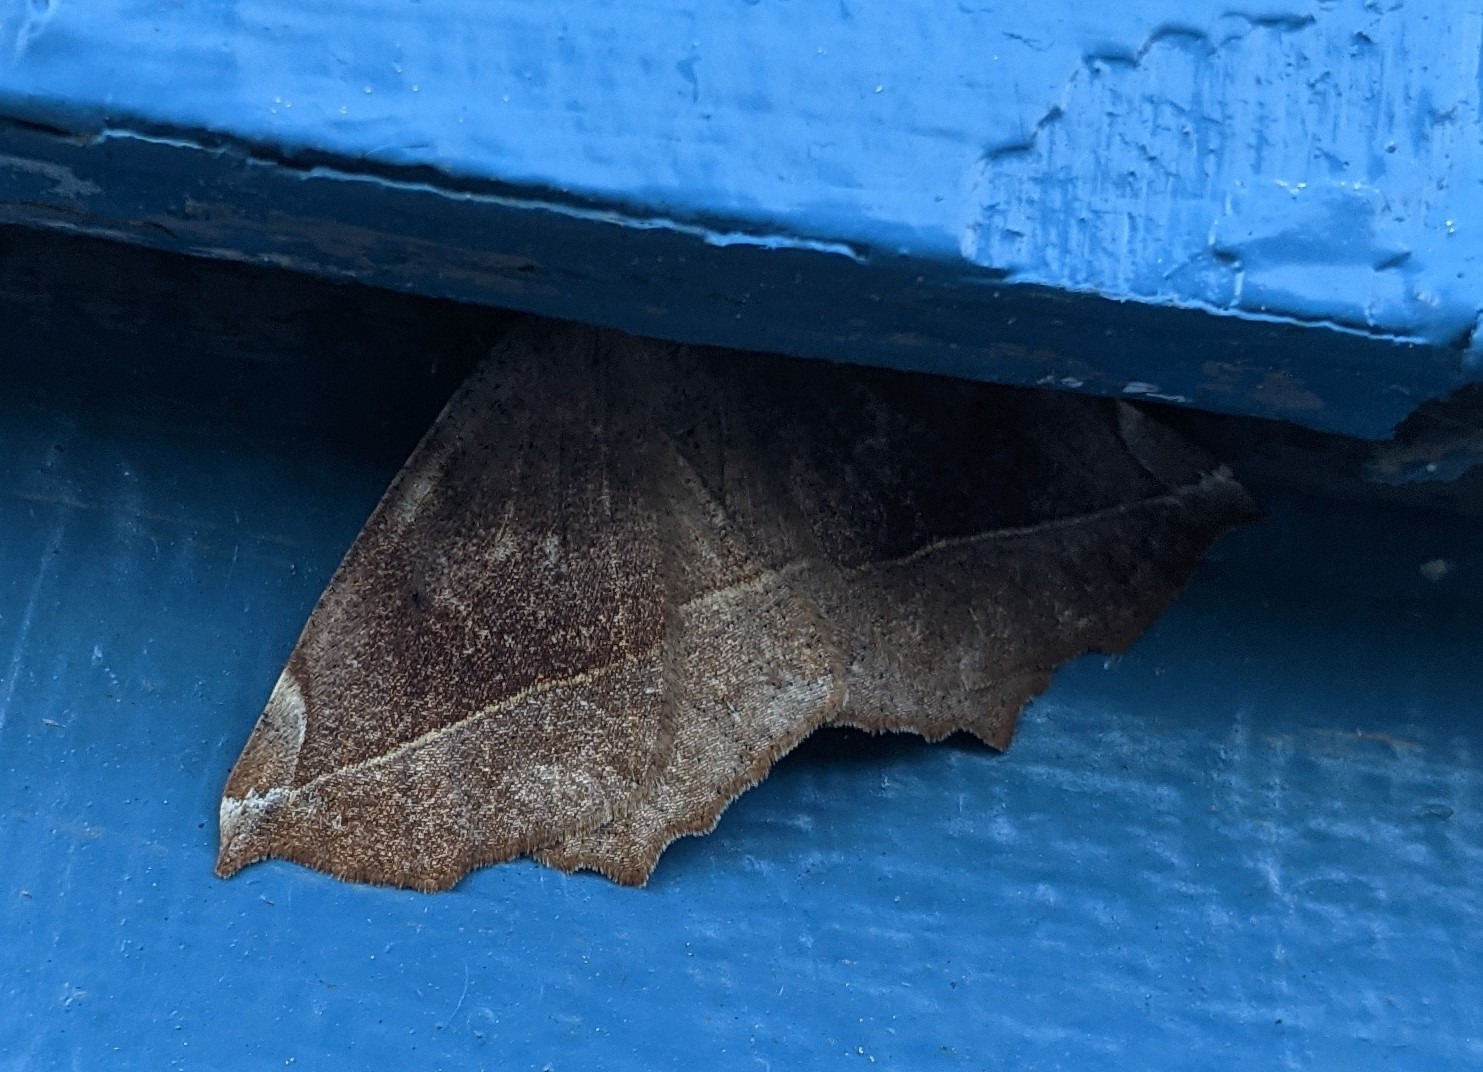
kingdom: Animalia
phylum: Arthropoda
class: Insecta
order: Lepidoptera
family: Geometridae
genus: Eutrapela
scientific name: Eutrapela clemataria
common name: Curved-toothed geometer
